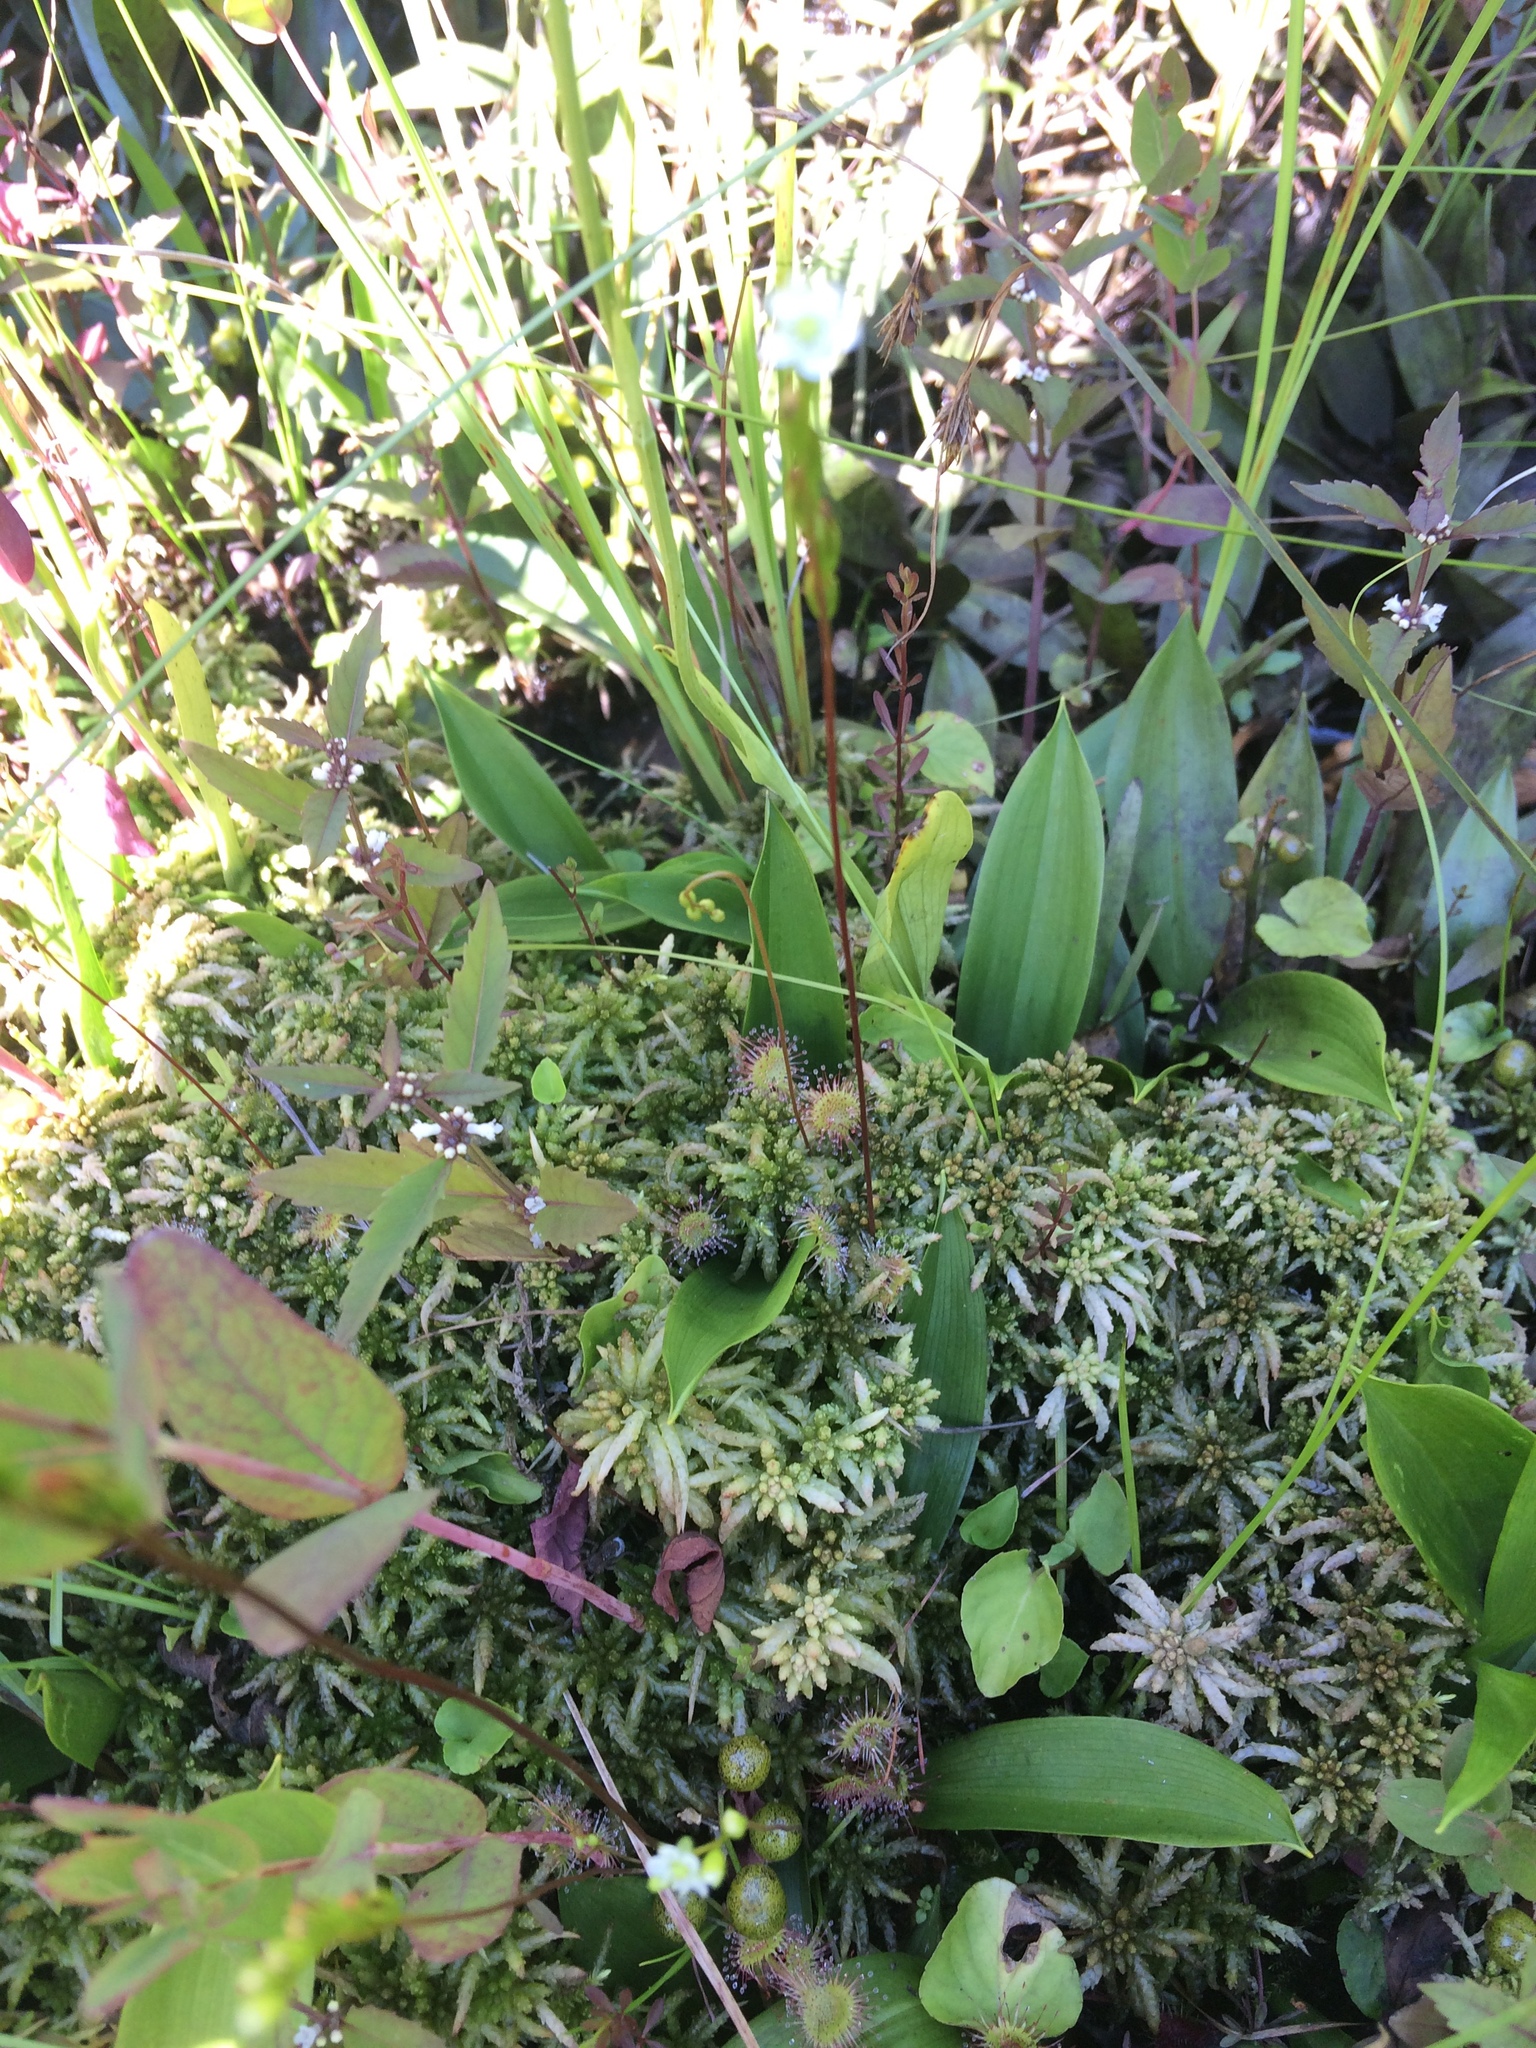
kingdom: Plantae
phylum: Tracheophyta
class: Magnoliopsida
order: Caryophyllales
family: Droseraceae
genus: Drosera
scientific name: Drosera rotundifolia
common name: Round-leaved sundew
